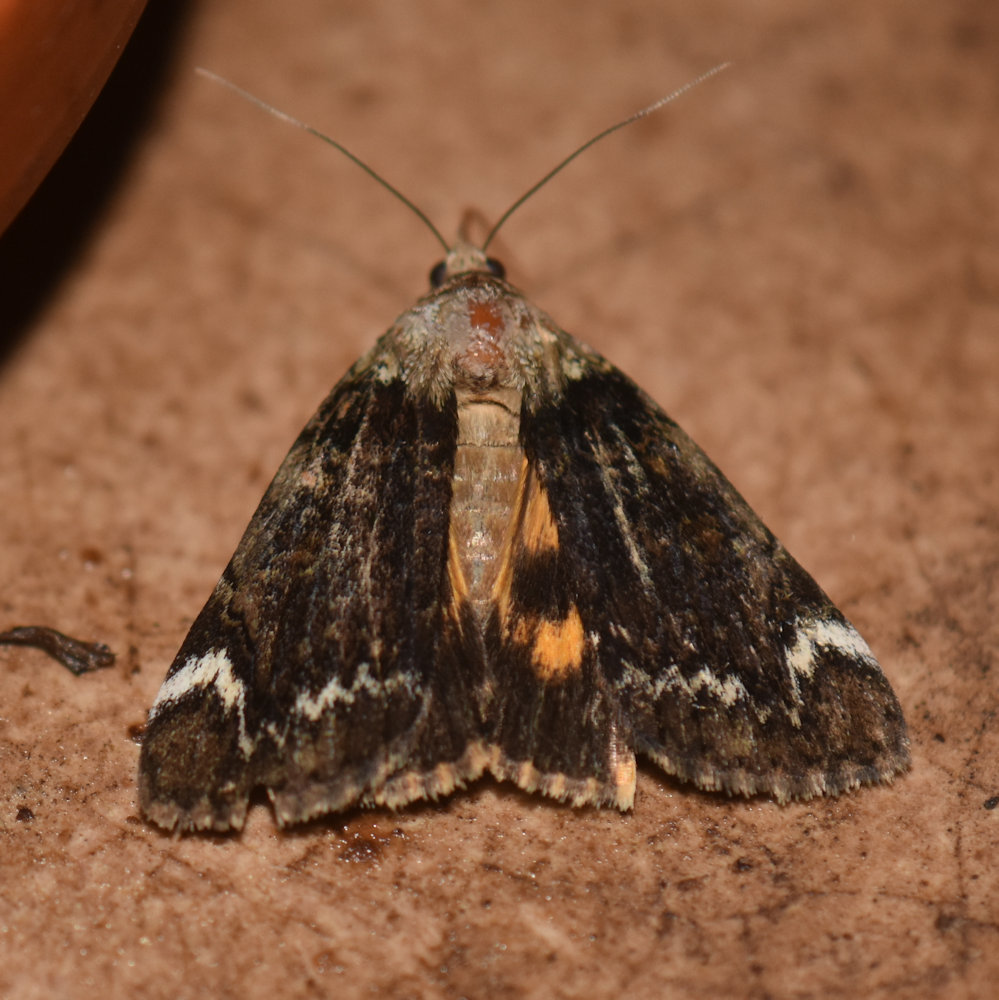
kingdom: Animalia
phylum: Arthropoda
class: Insecta
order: Lepidoptera
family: Erebidae
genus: Catocala
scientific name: Catocala minuta
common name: Little underwing
